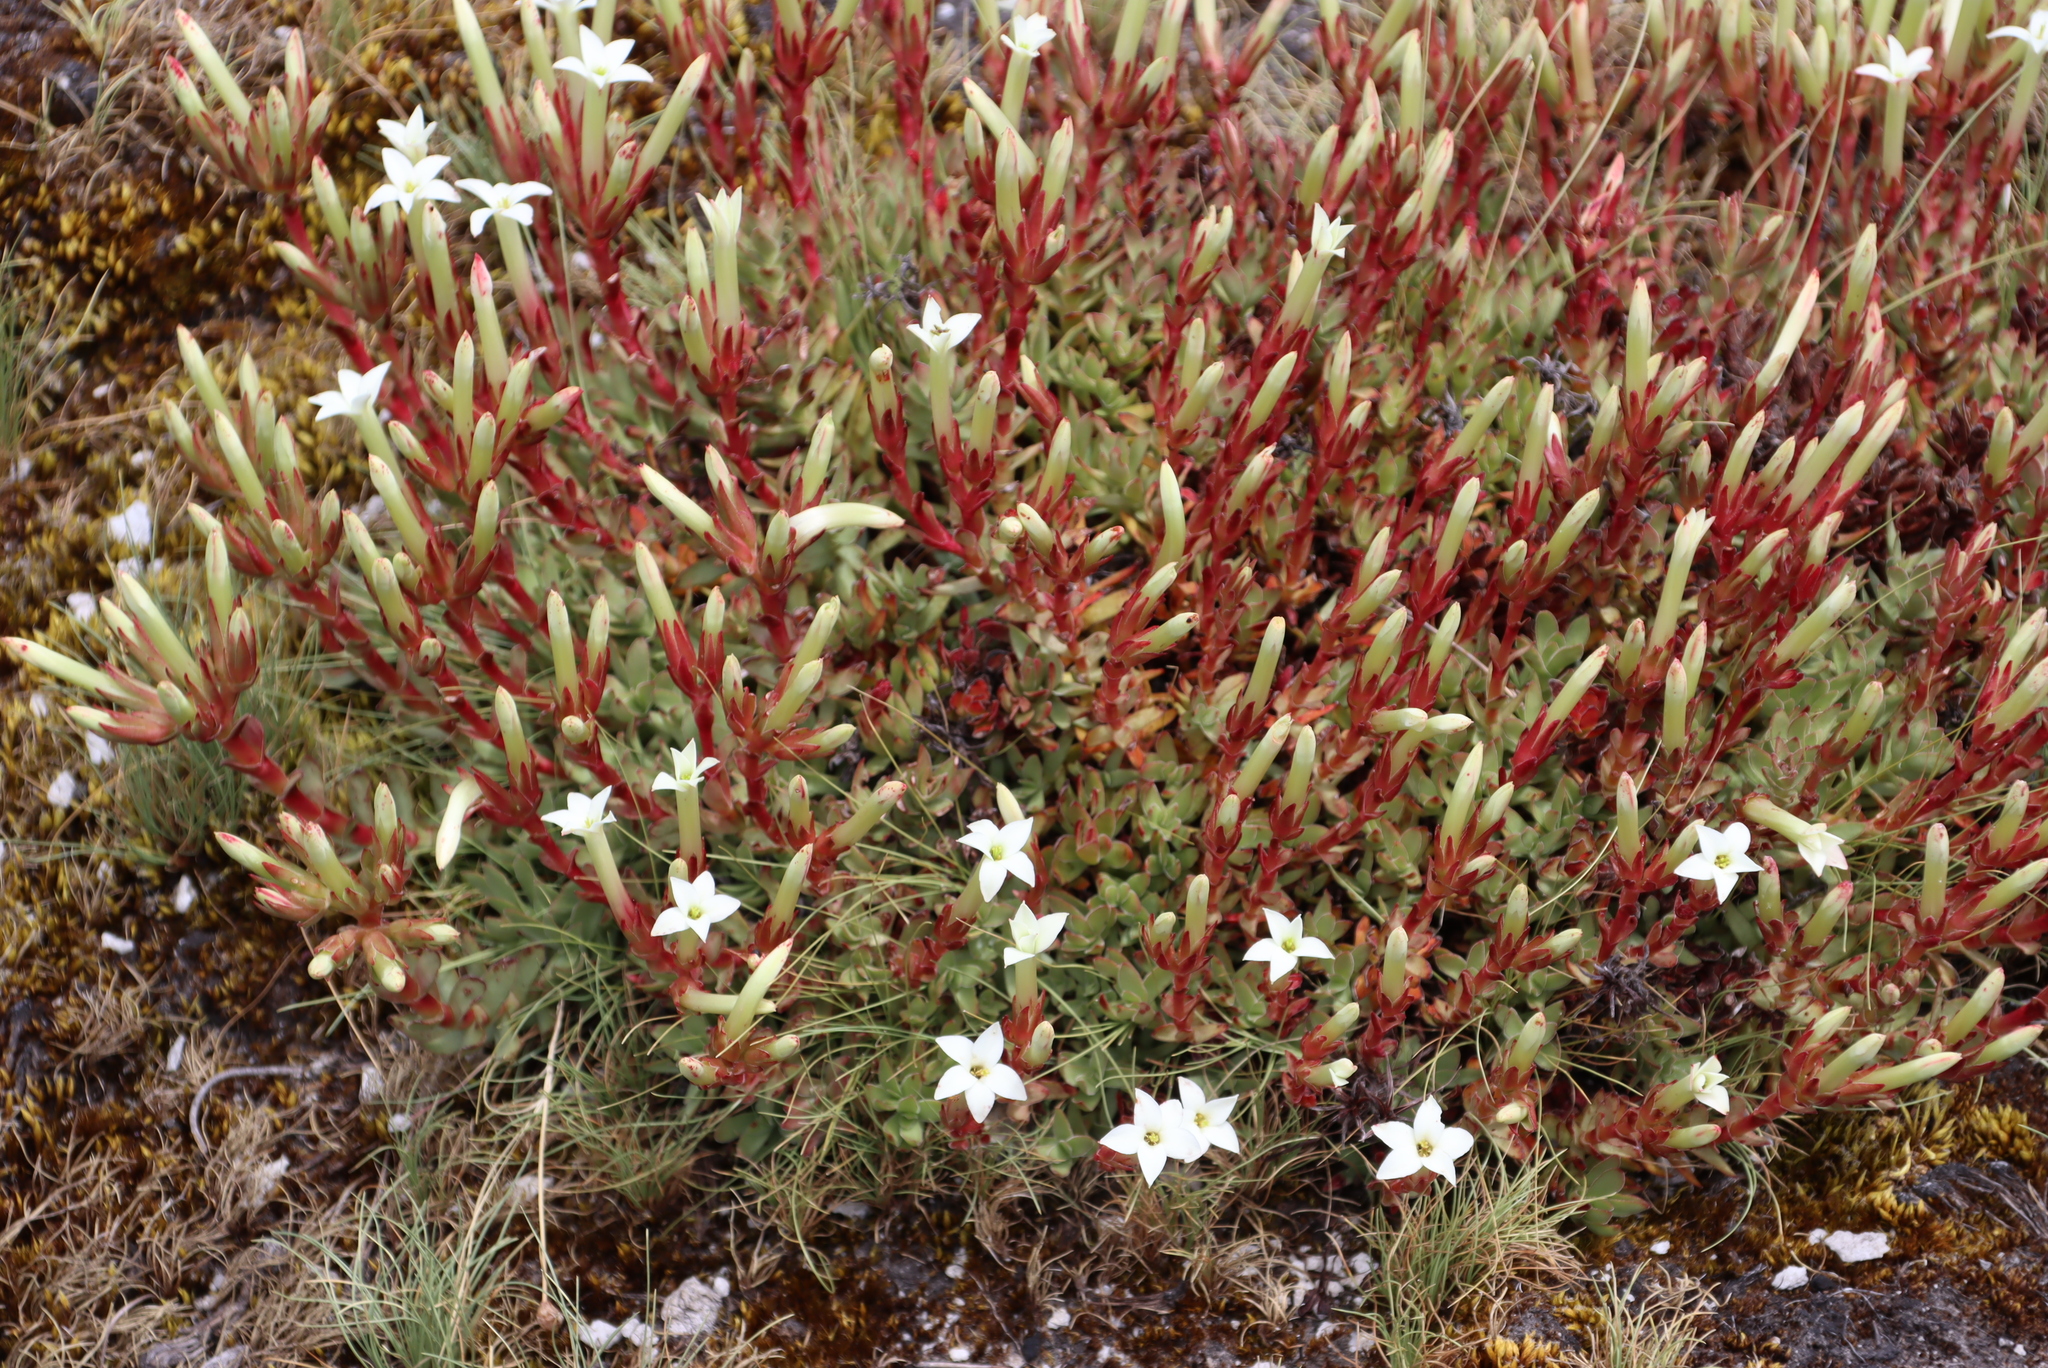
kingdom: Plantae
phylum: Tracheophyta
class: Magnoliopsida
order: Saxifragales
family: Crassulaceae
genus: Crassula
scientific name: Crassula obtusa
